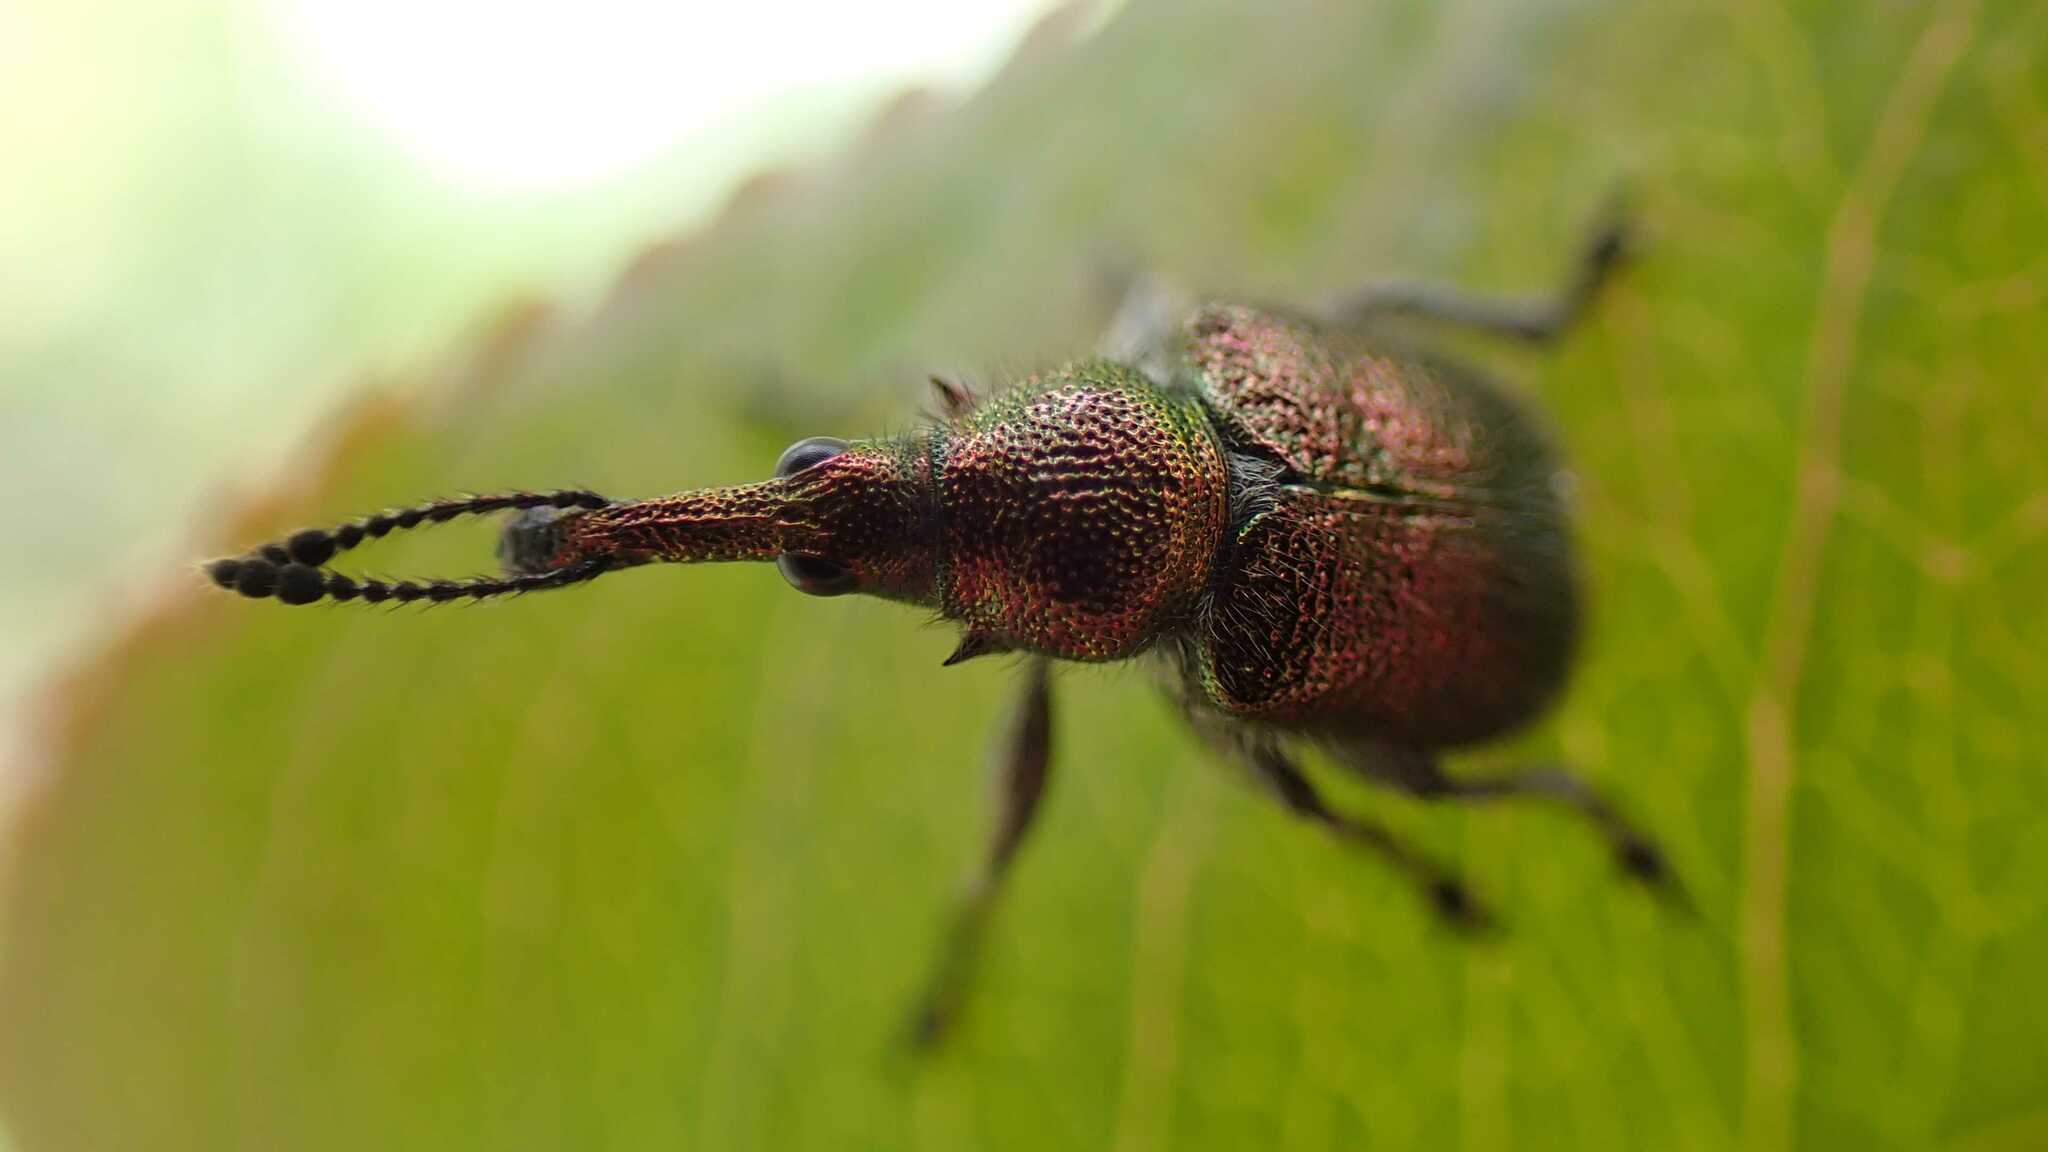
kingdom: Animalia
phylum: Arthropoda
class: Insecta
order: Coleoptera
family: Attelabidae
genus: Rhynchites
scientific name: Rhynchites auratus
